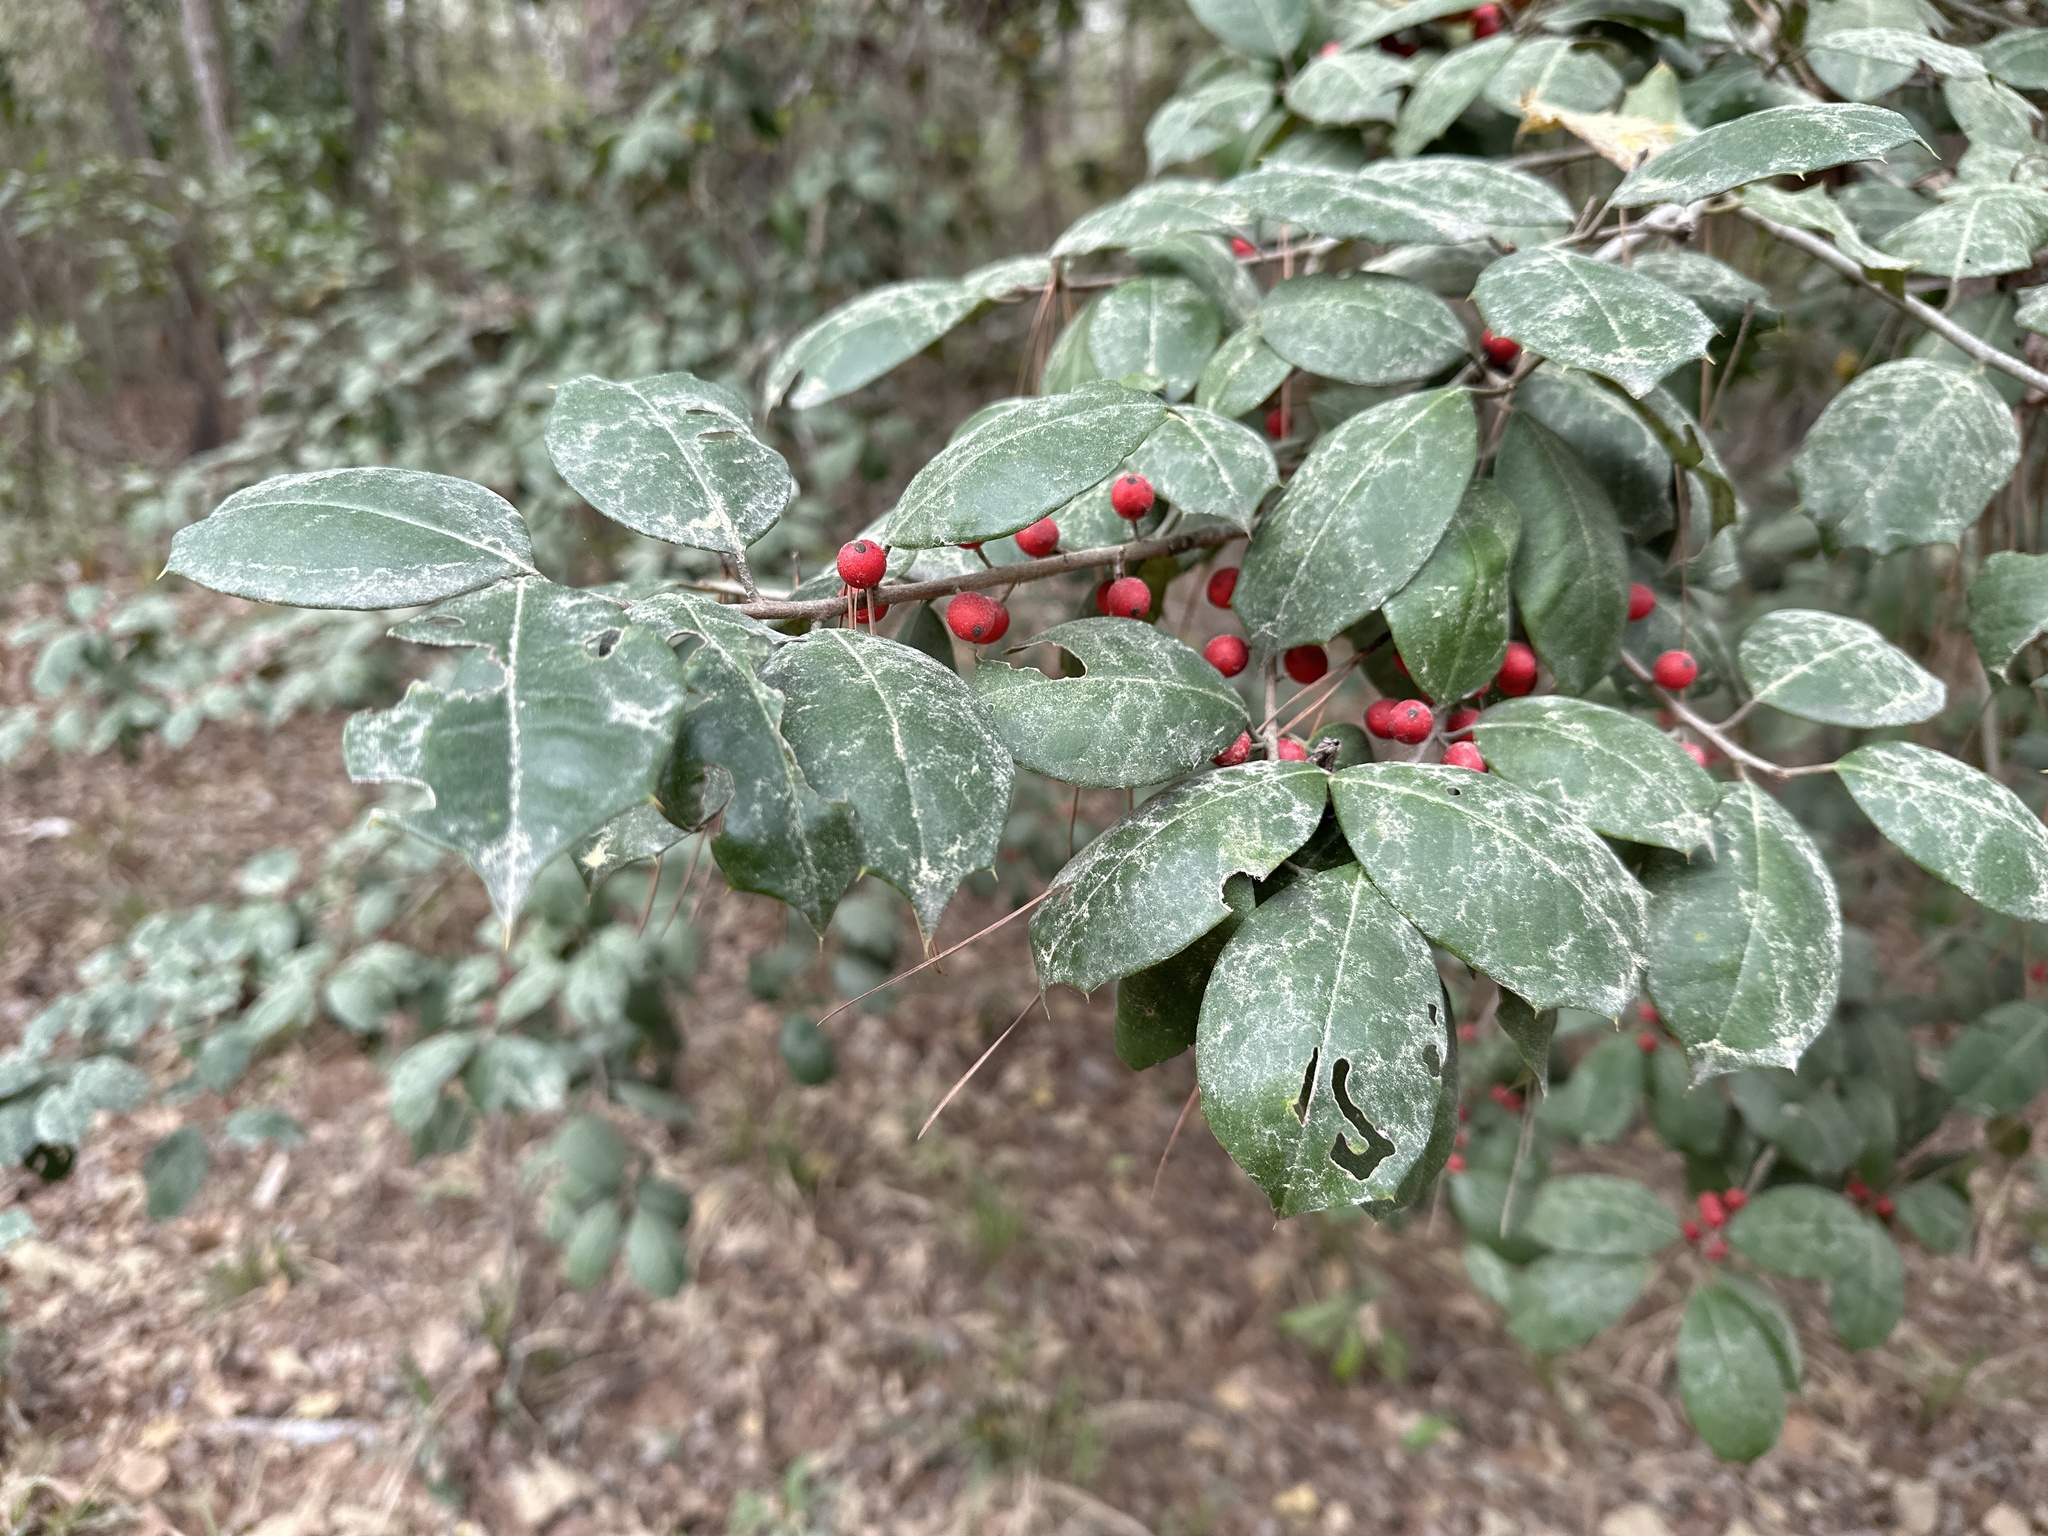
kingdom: Plantae
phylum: Tracheophyta
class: Magnoliopsida
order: Aquifoliales
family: Aquifoliaceae
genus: Ilex
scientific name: Ilex opaca
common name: American holly
